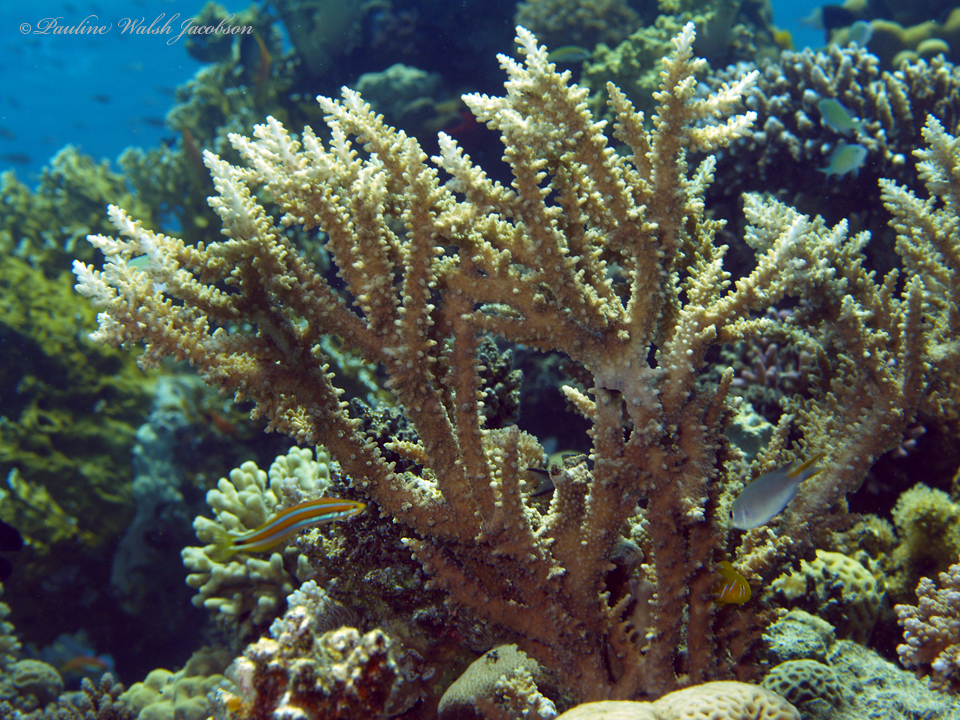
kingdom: Animalia
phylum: Chordata
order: Perciformes
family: Blenniidae
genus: Plagiotremus
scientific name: Plagiotremus rhinorhynchos
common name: Bluestriped fangblenny
